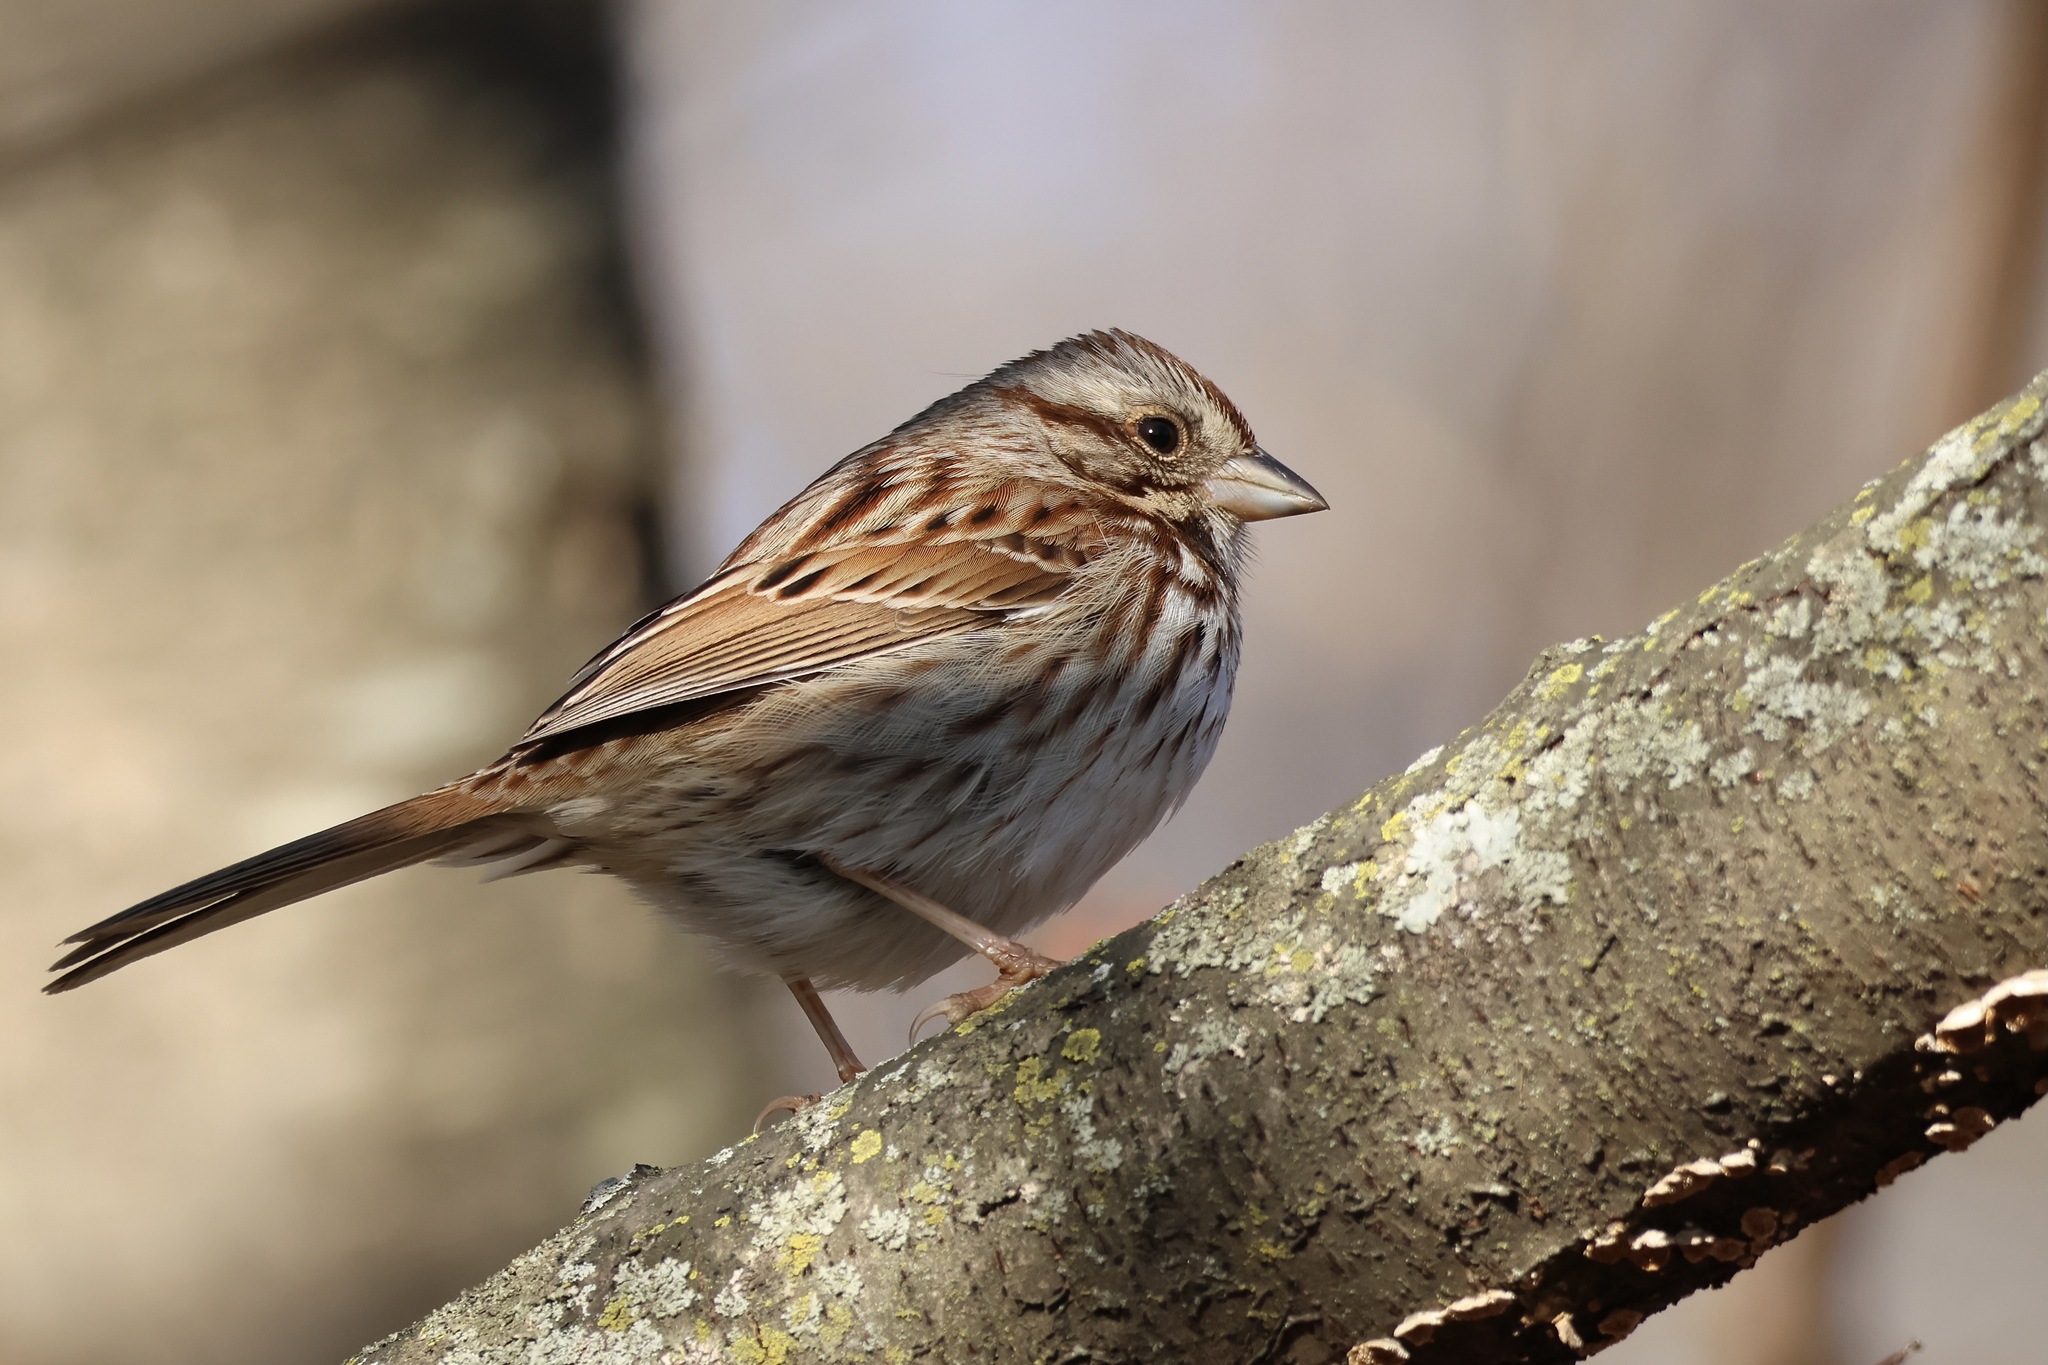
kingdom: Animalia
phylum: Chordata
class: Aves
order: Passeriformes
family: Passerellidae
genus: Melospiza
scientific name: Melospiza melodia
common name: Song sparrow
